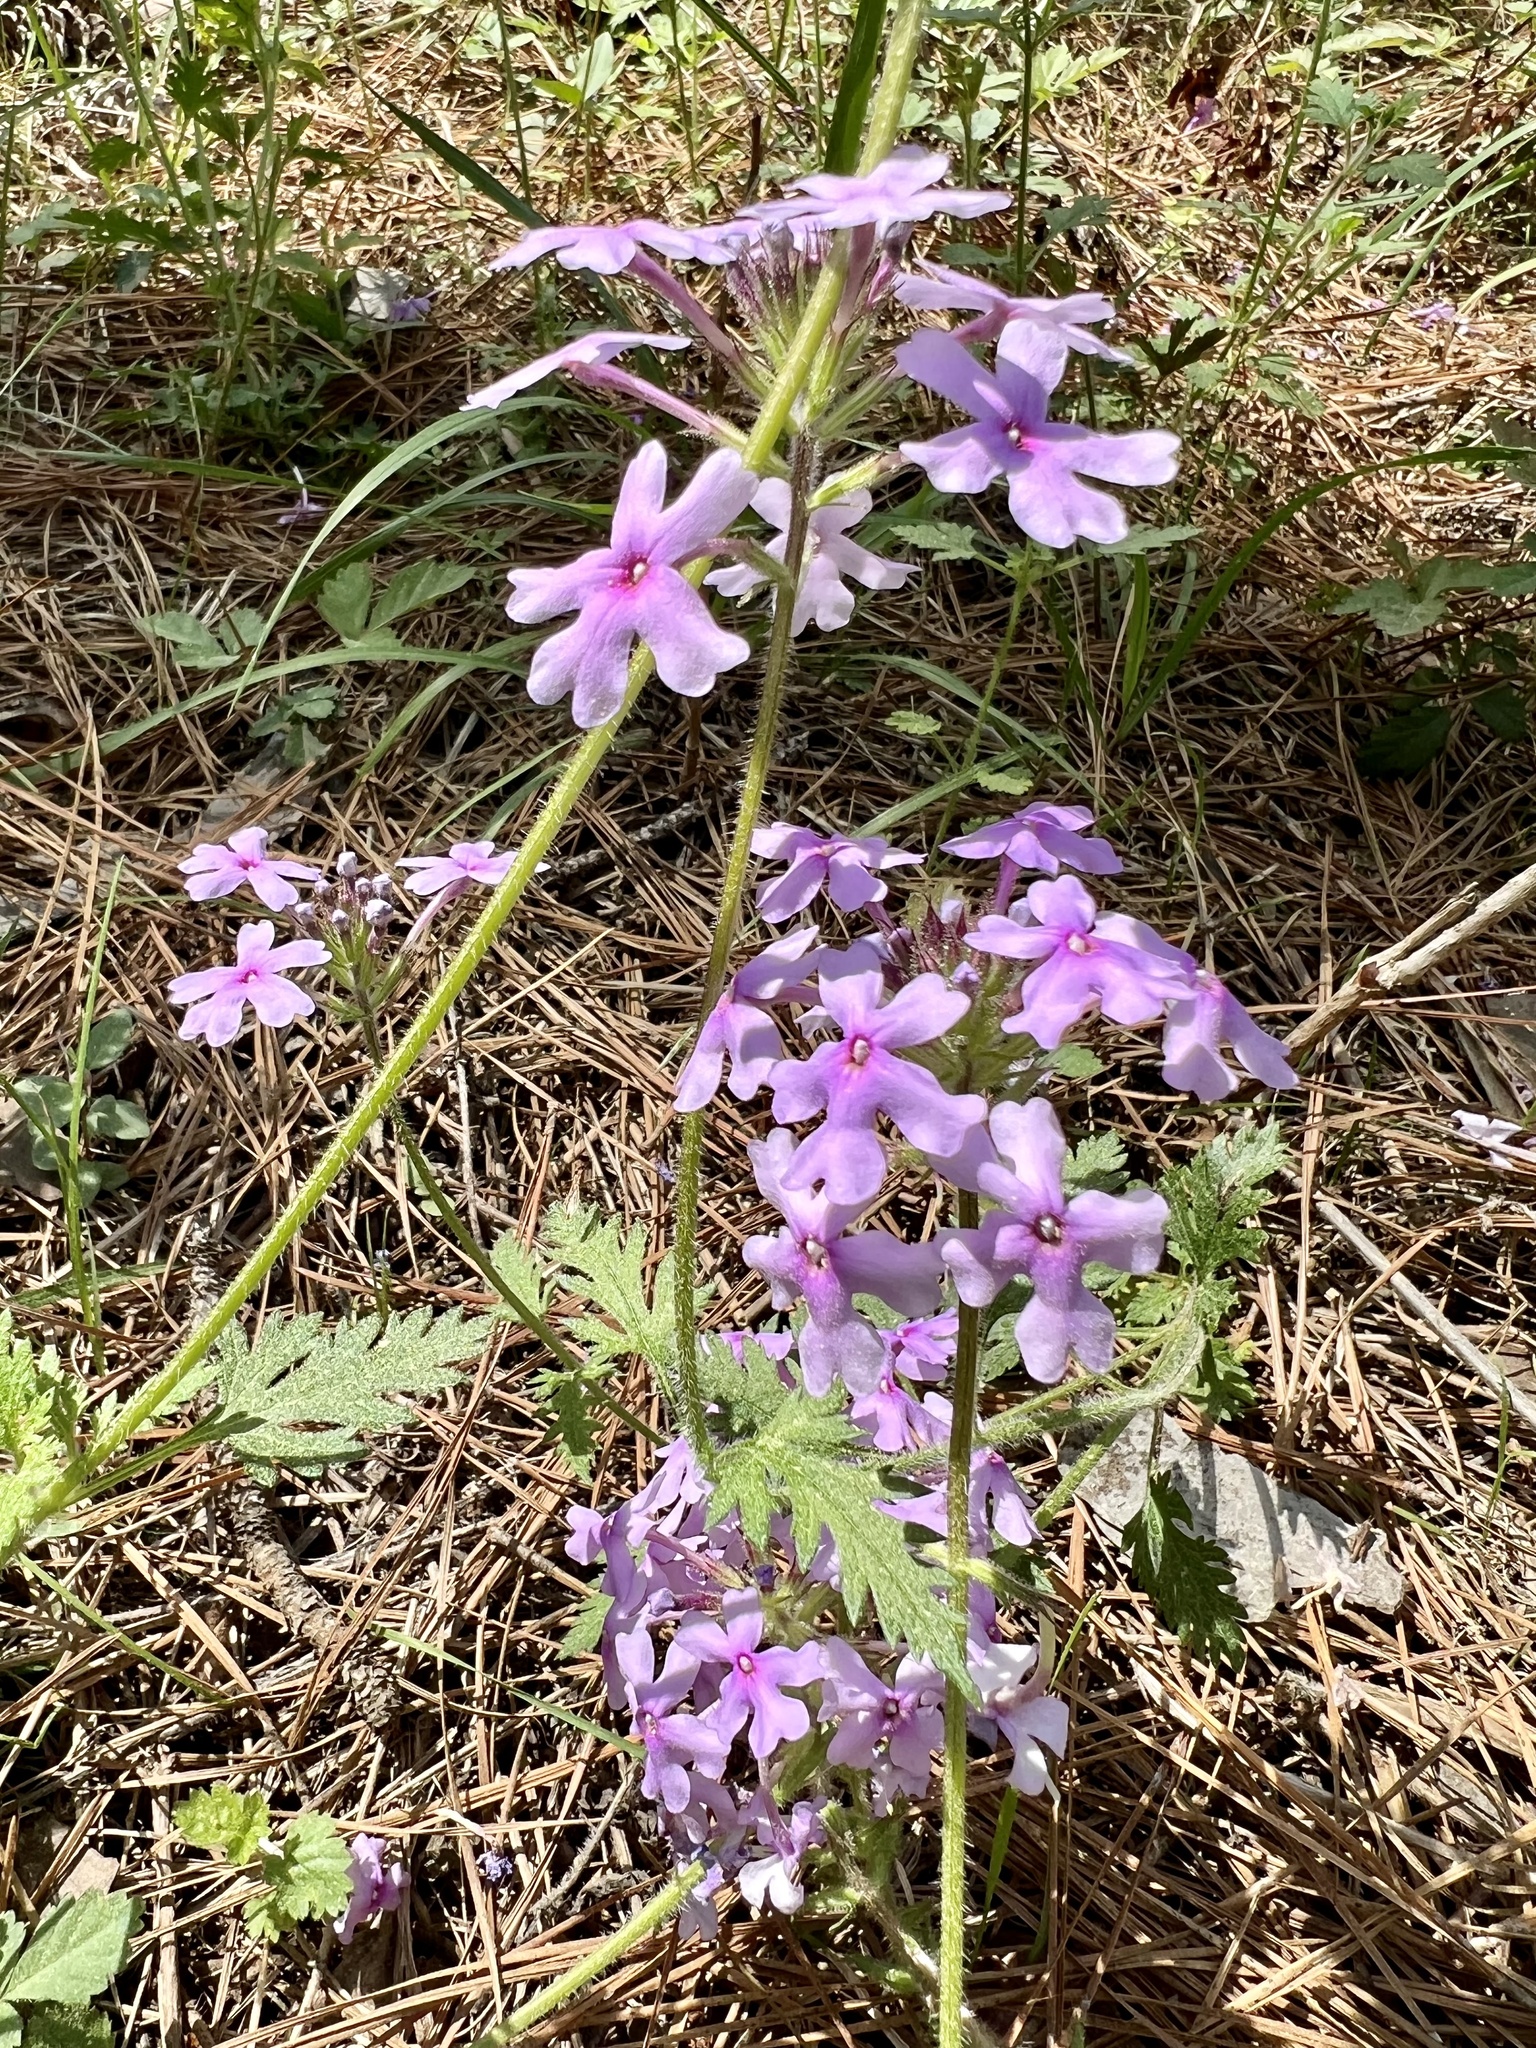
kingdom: Plantae
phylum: Tracheophyta
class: Magnoliopsida
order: Lamiales
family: Verbenaceae
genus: Verbena
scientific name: Verbena canadensis
